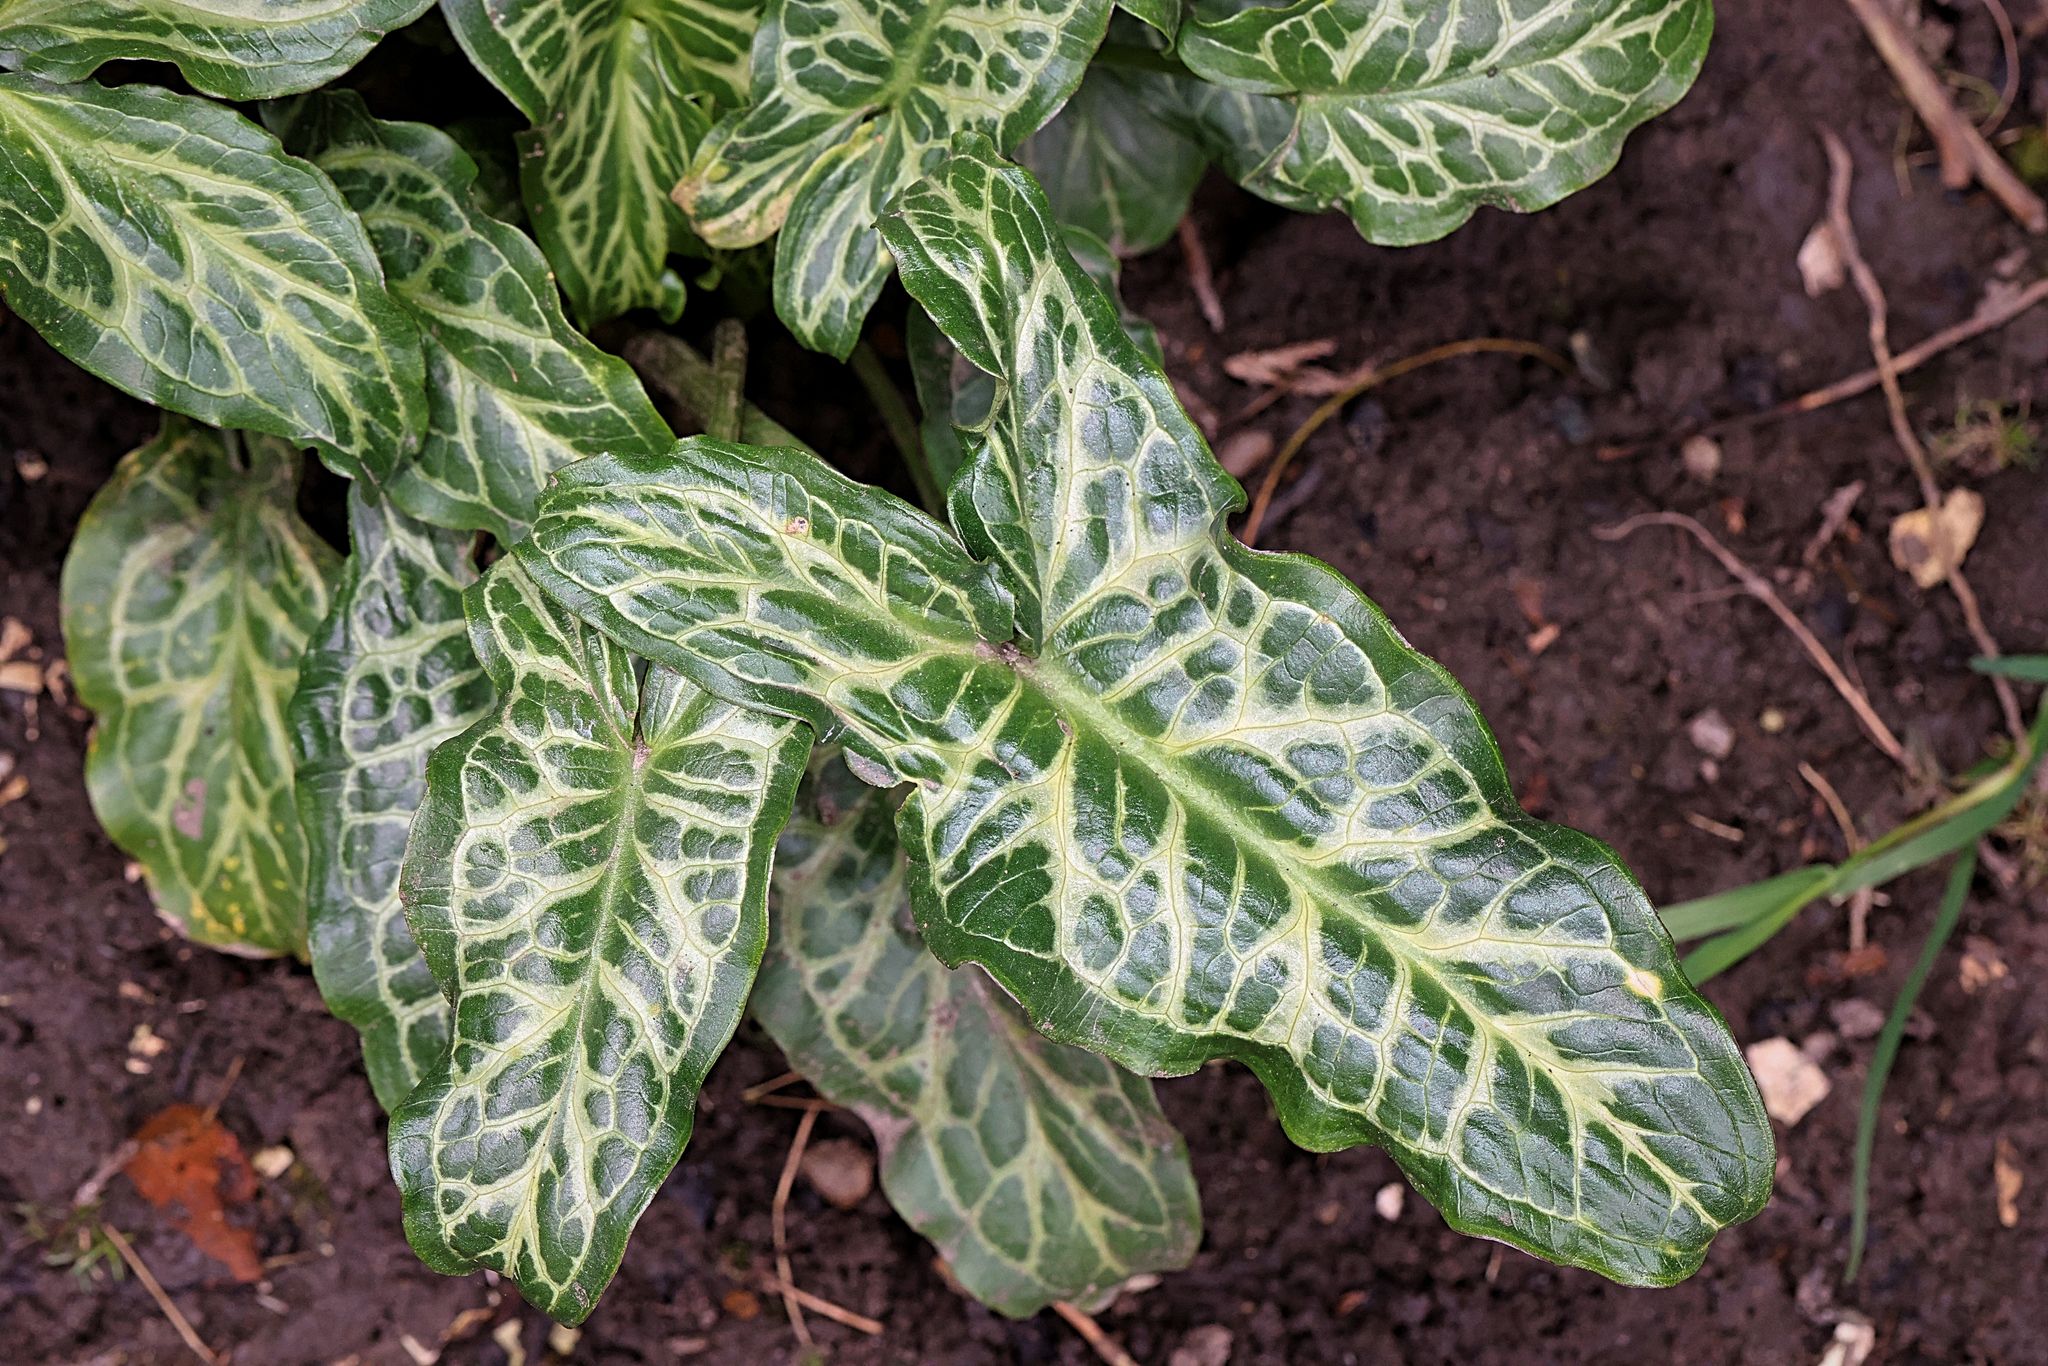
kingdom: Plantae
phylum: Tracheophyta
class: Liliopsida
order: Alismatales
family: Araceae
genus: Arum
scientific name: Arum italicum
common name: Italian lords-and-ladies
